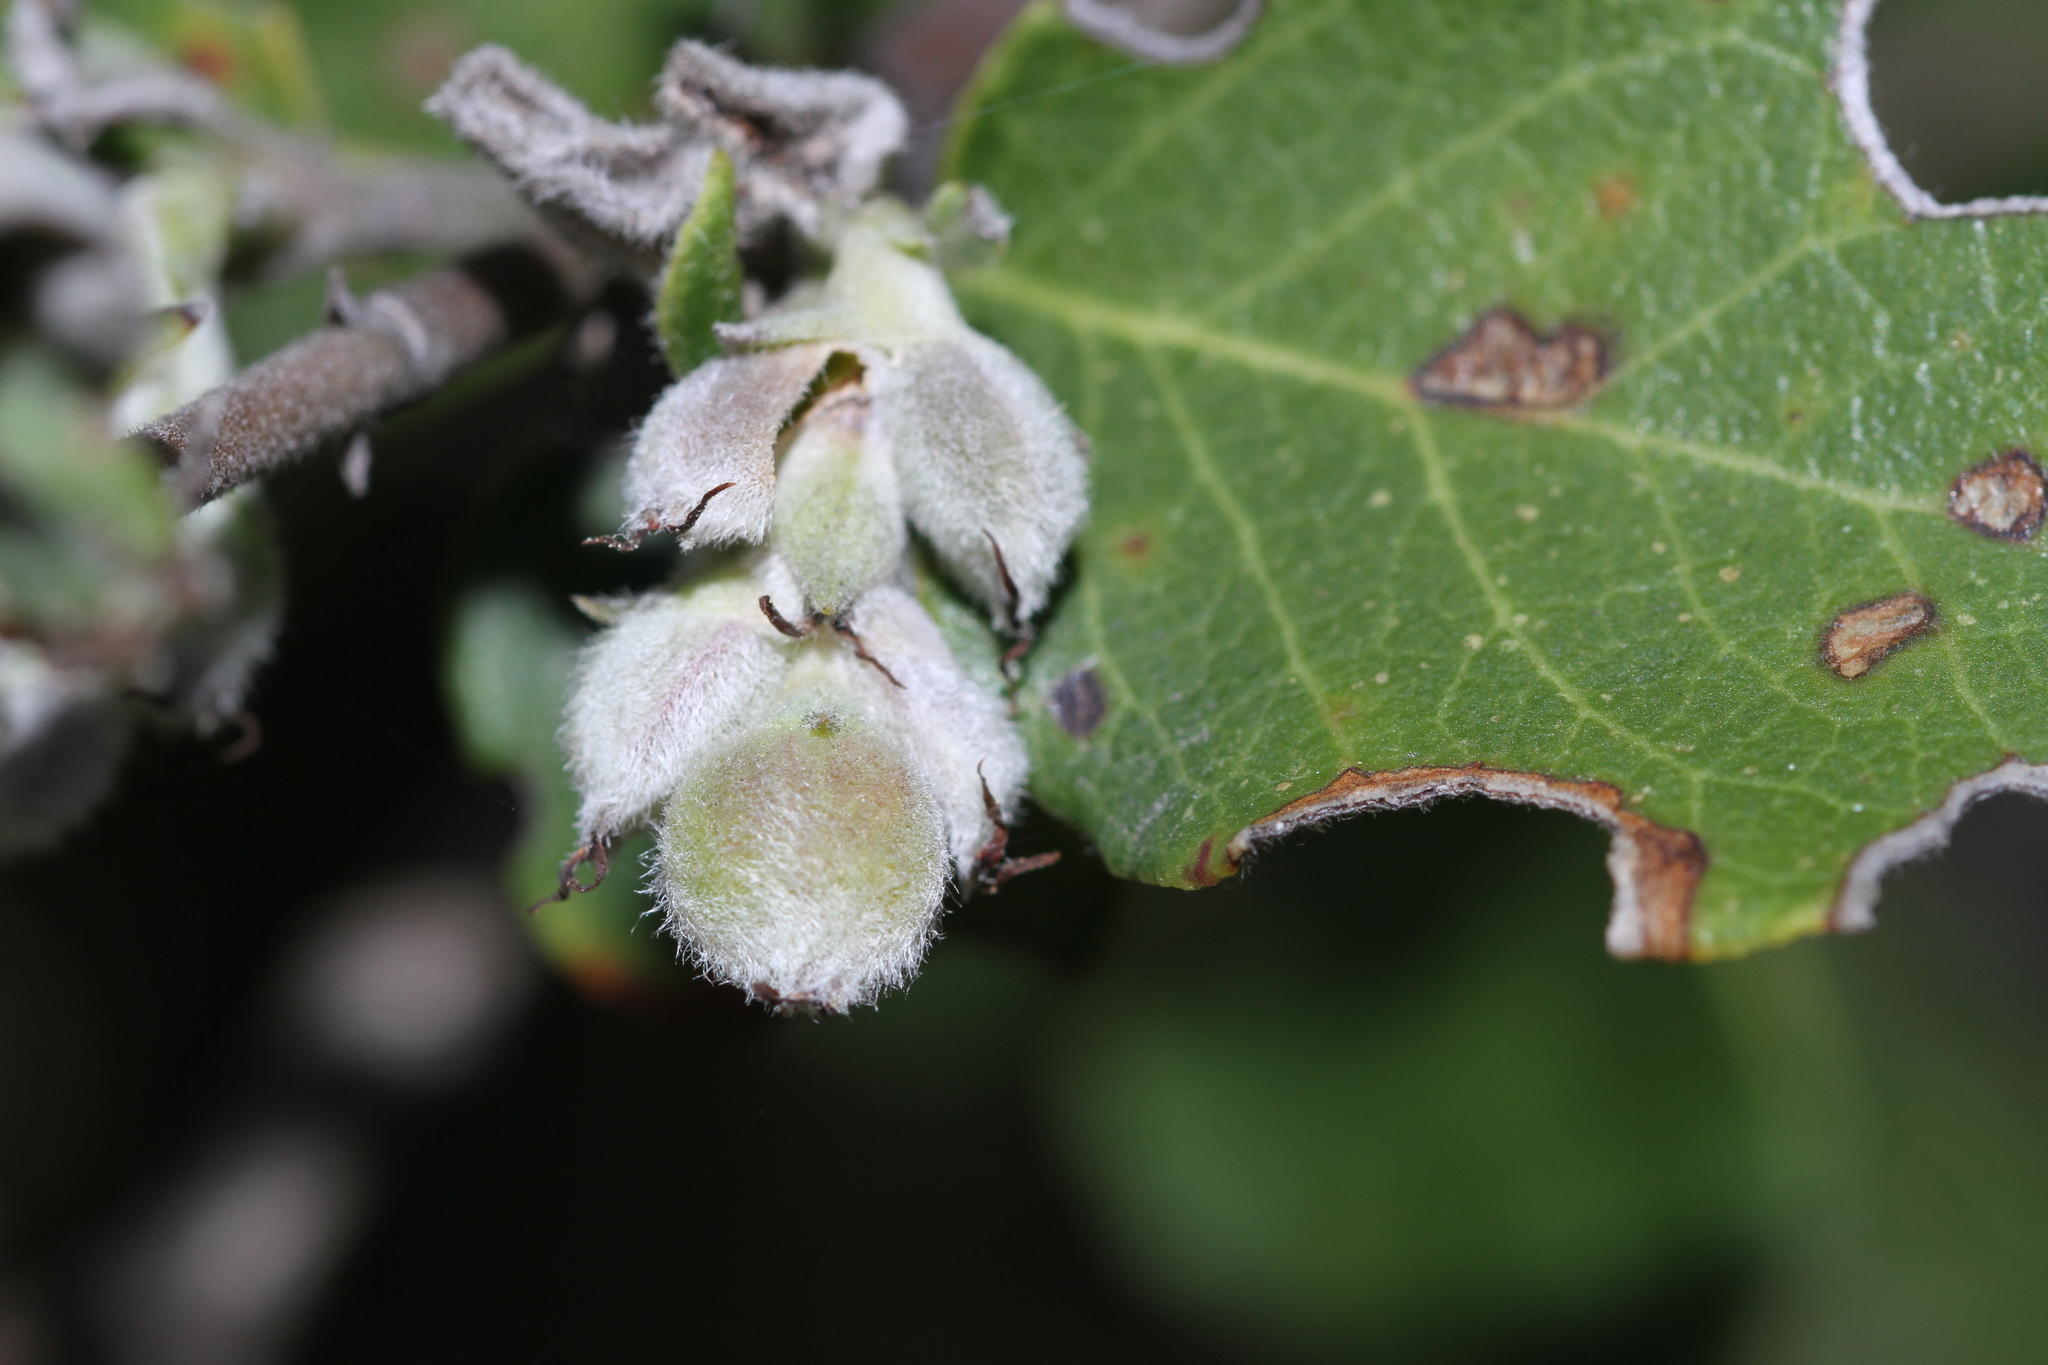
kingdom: Plantae
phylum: Tracheophyta
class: Magnoliopsida
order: Garryales
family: Garryaceae
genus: Garrya
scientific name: Garrya elliptica
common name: Silk-tassel
